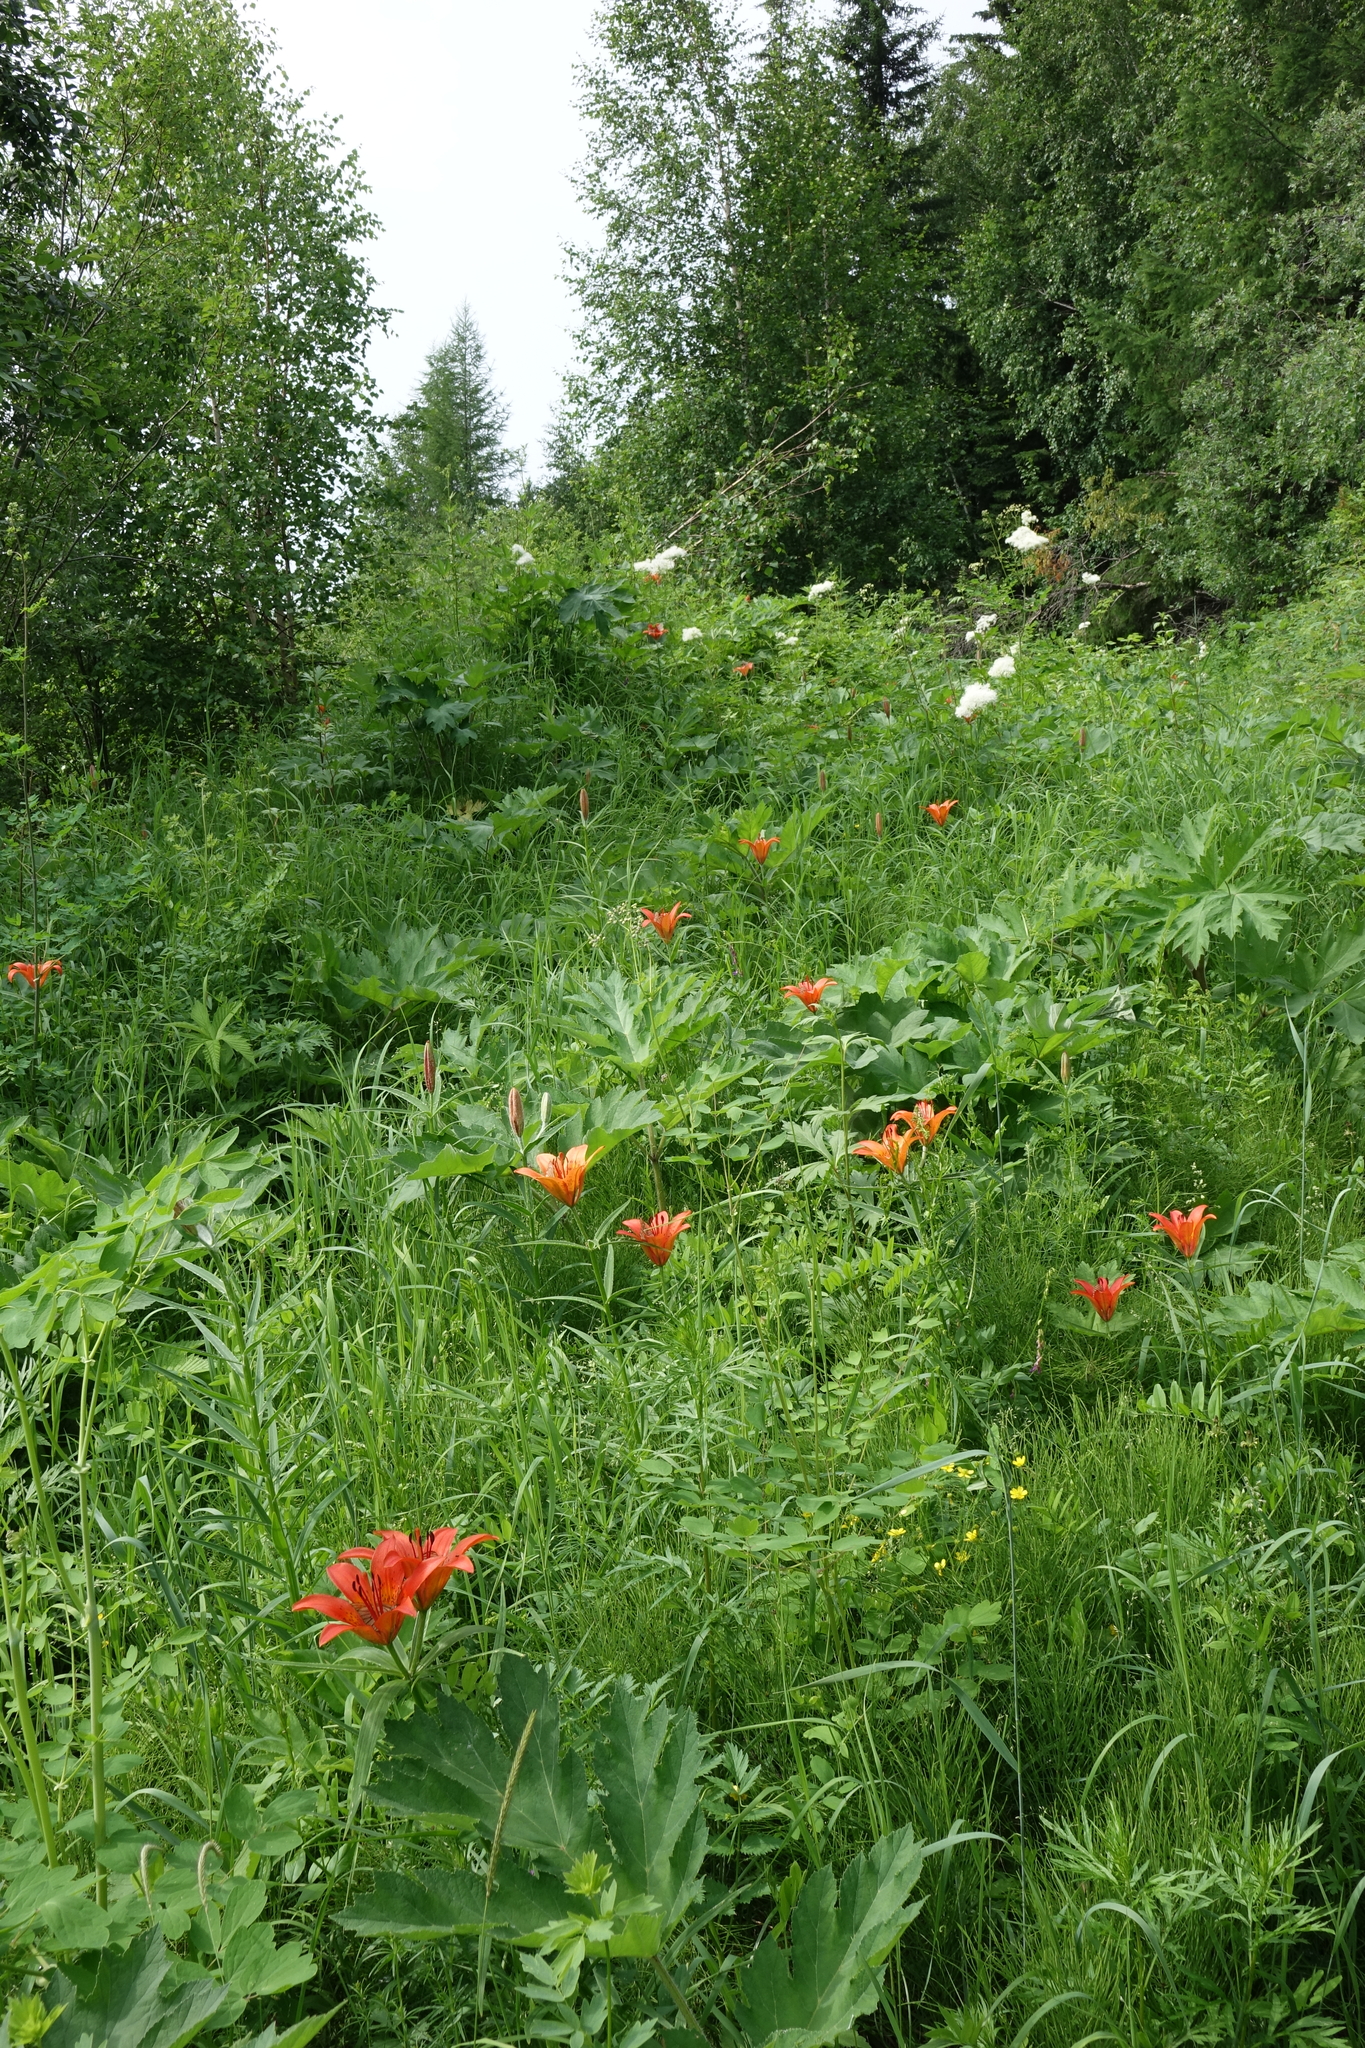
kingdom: Plantae
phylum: Tracheophyta
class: Liliopsida
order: Liliales
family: Liliaceae
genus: Lilium
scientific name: Lilium pensylvanicum
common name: Candlestick lily
